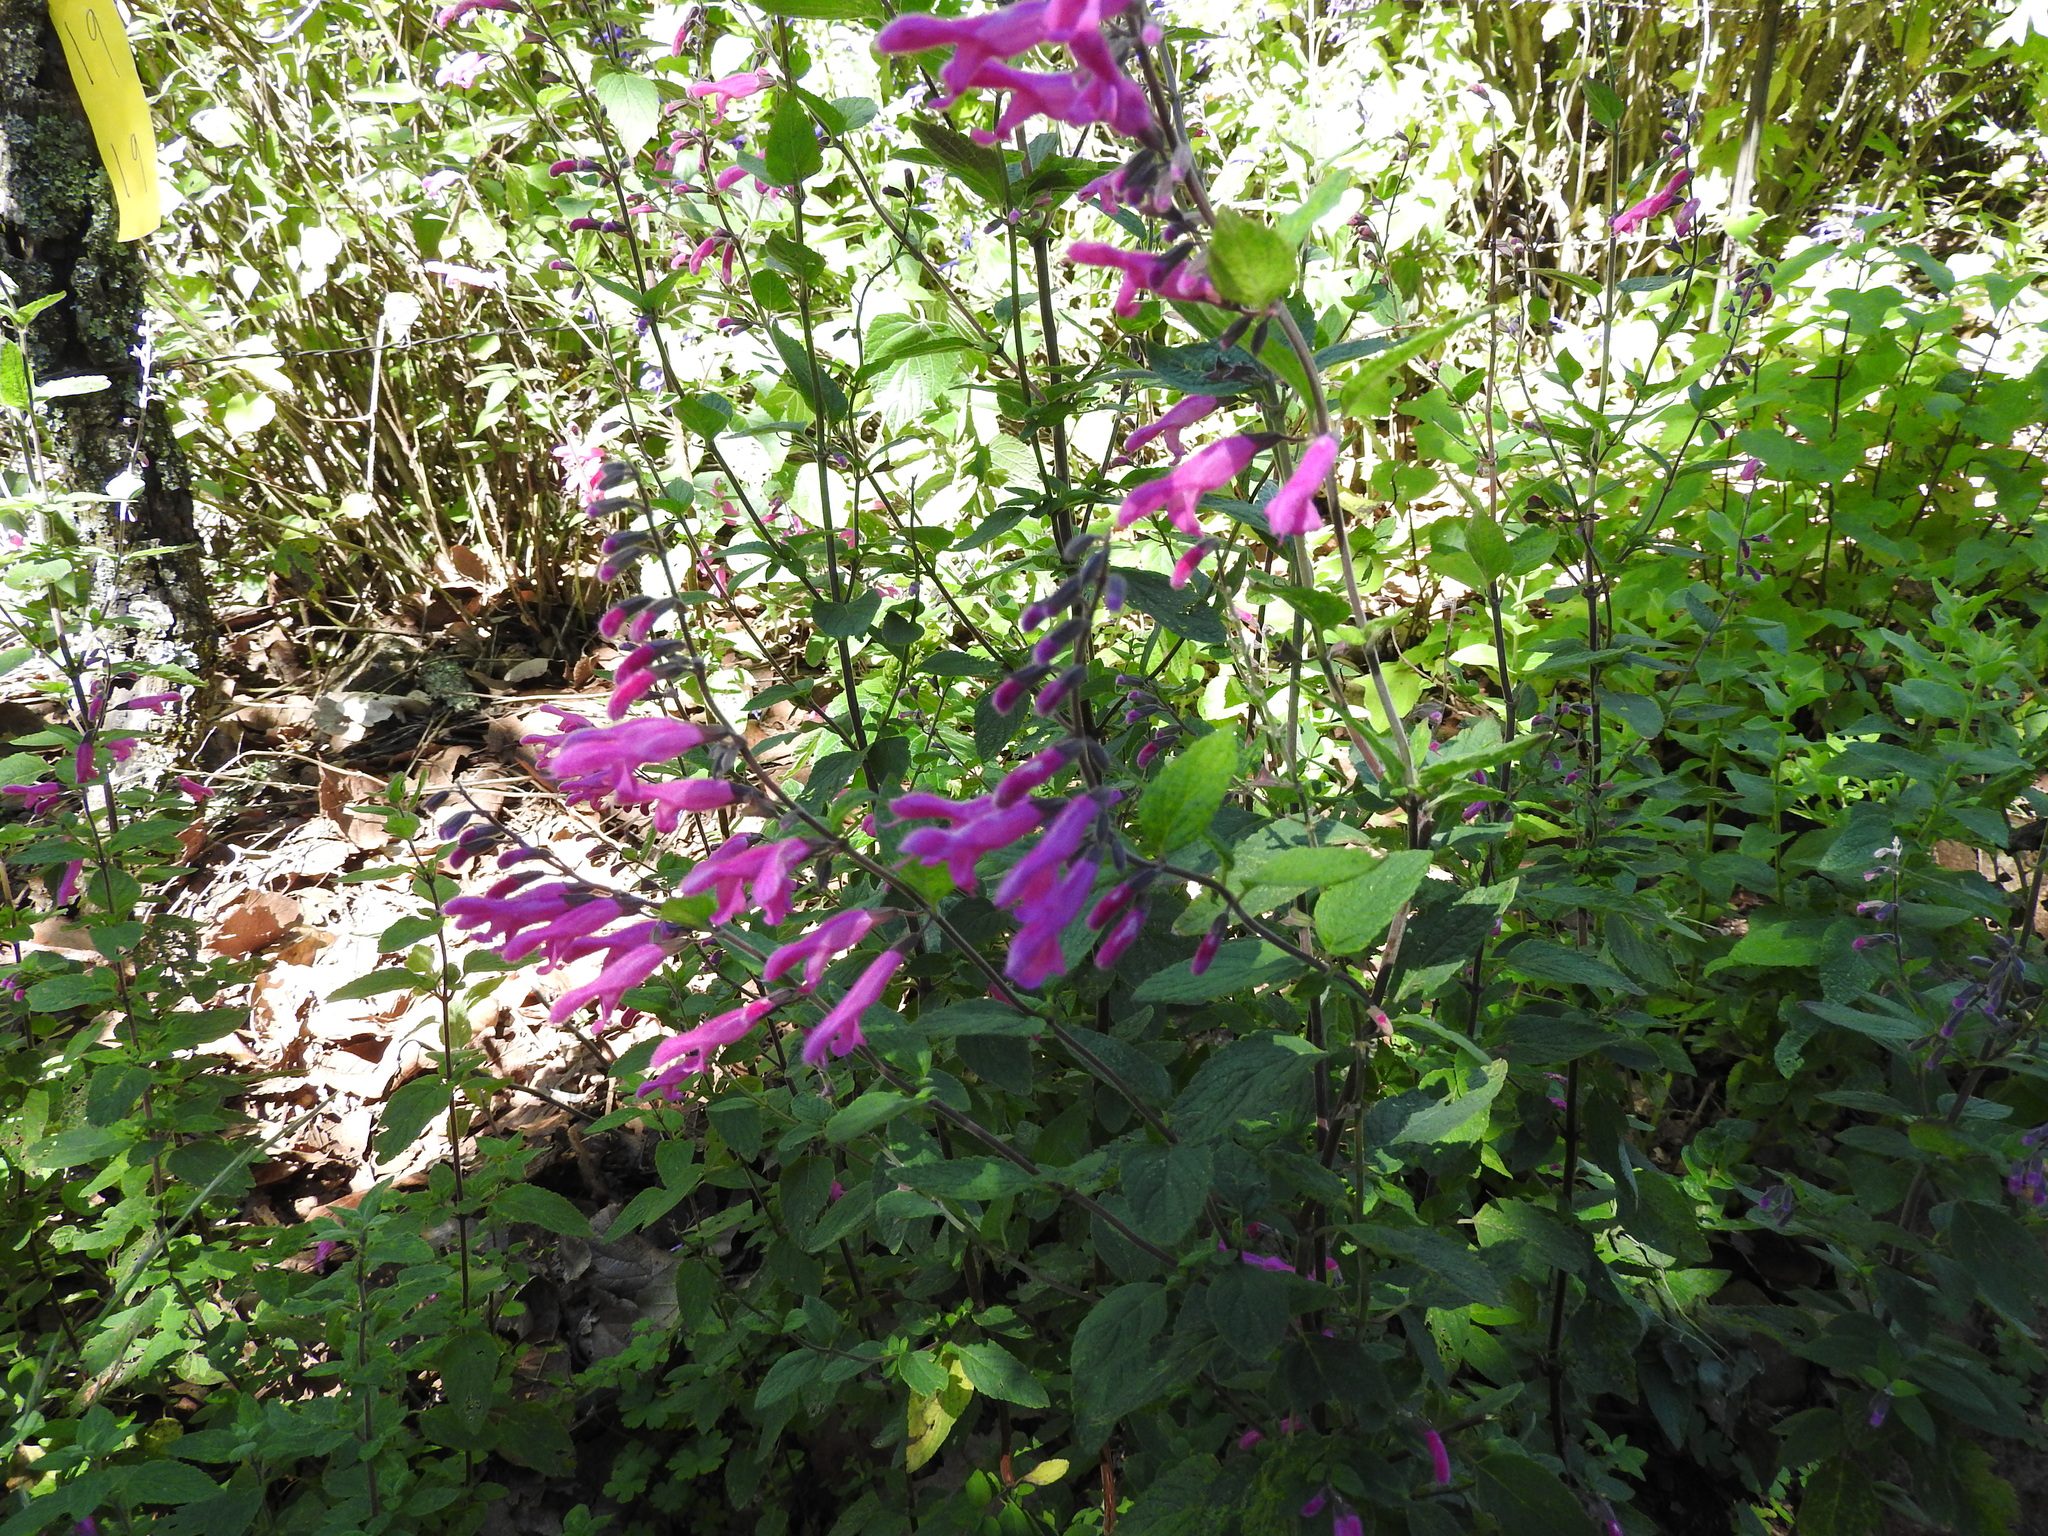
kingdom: Plantae
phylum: Tracheophyta
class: Magnoliopsida
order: Lamiales
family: Lamiaceae
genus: Salvia
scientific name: Salvia curviflora
